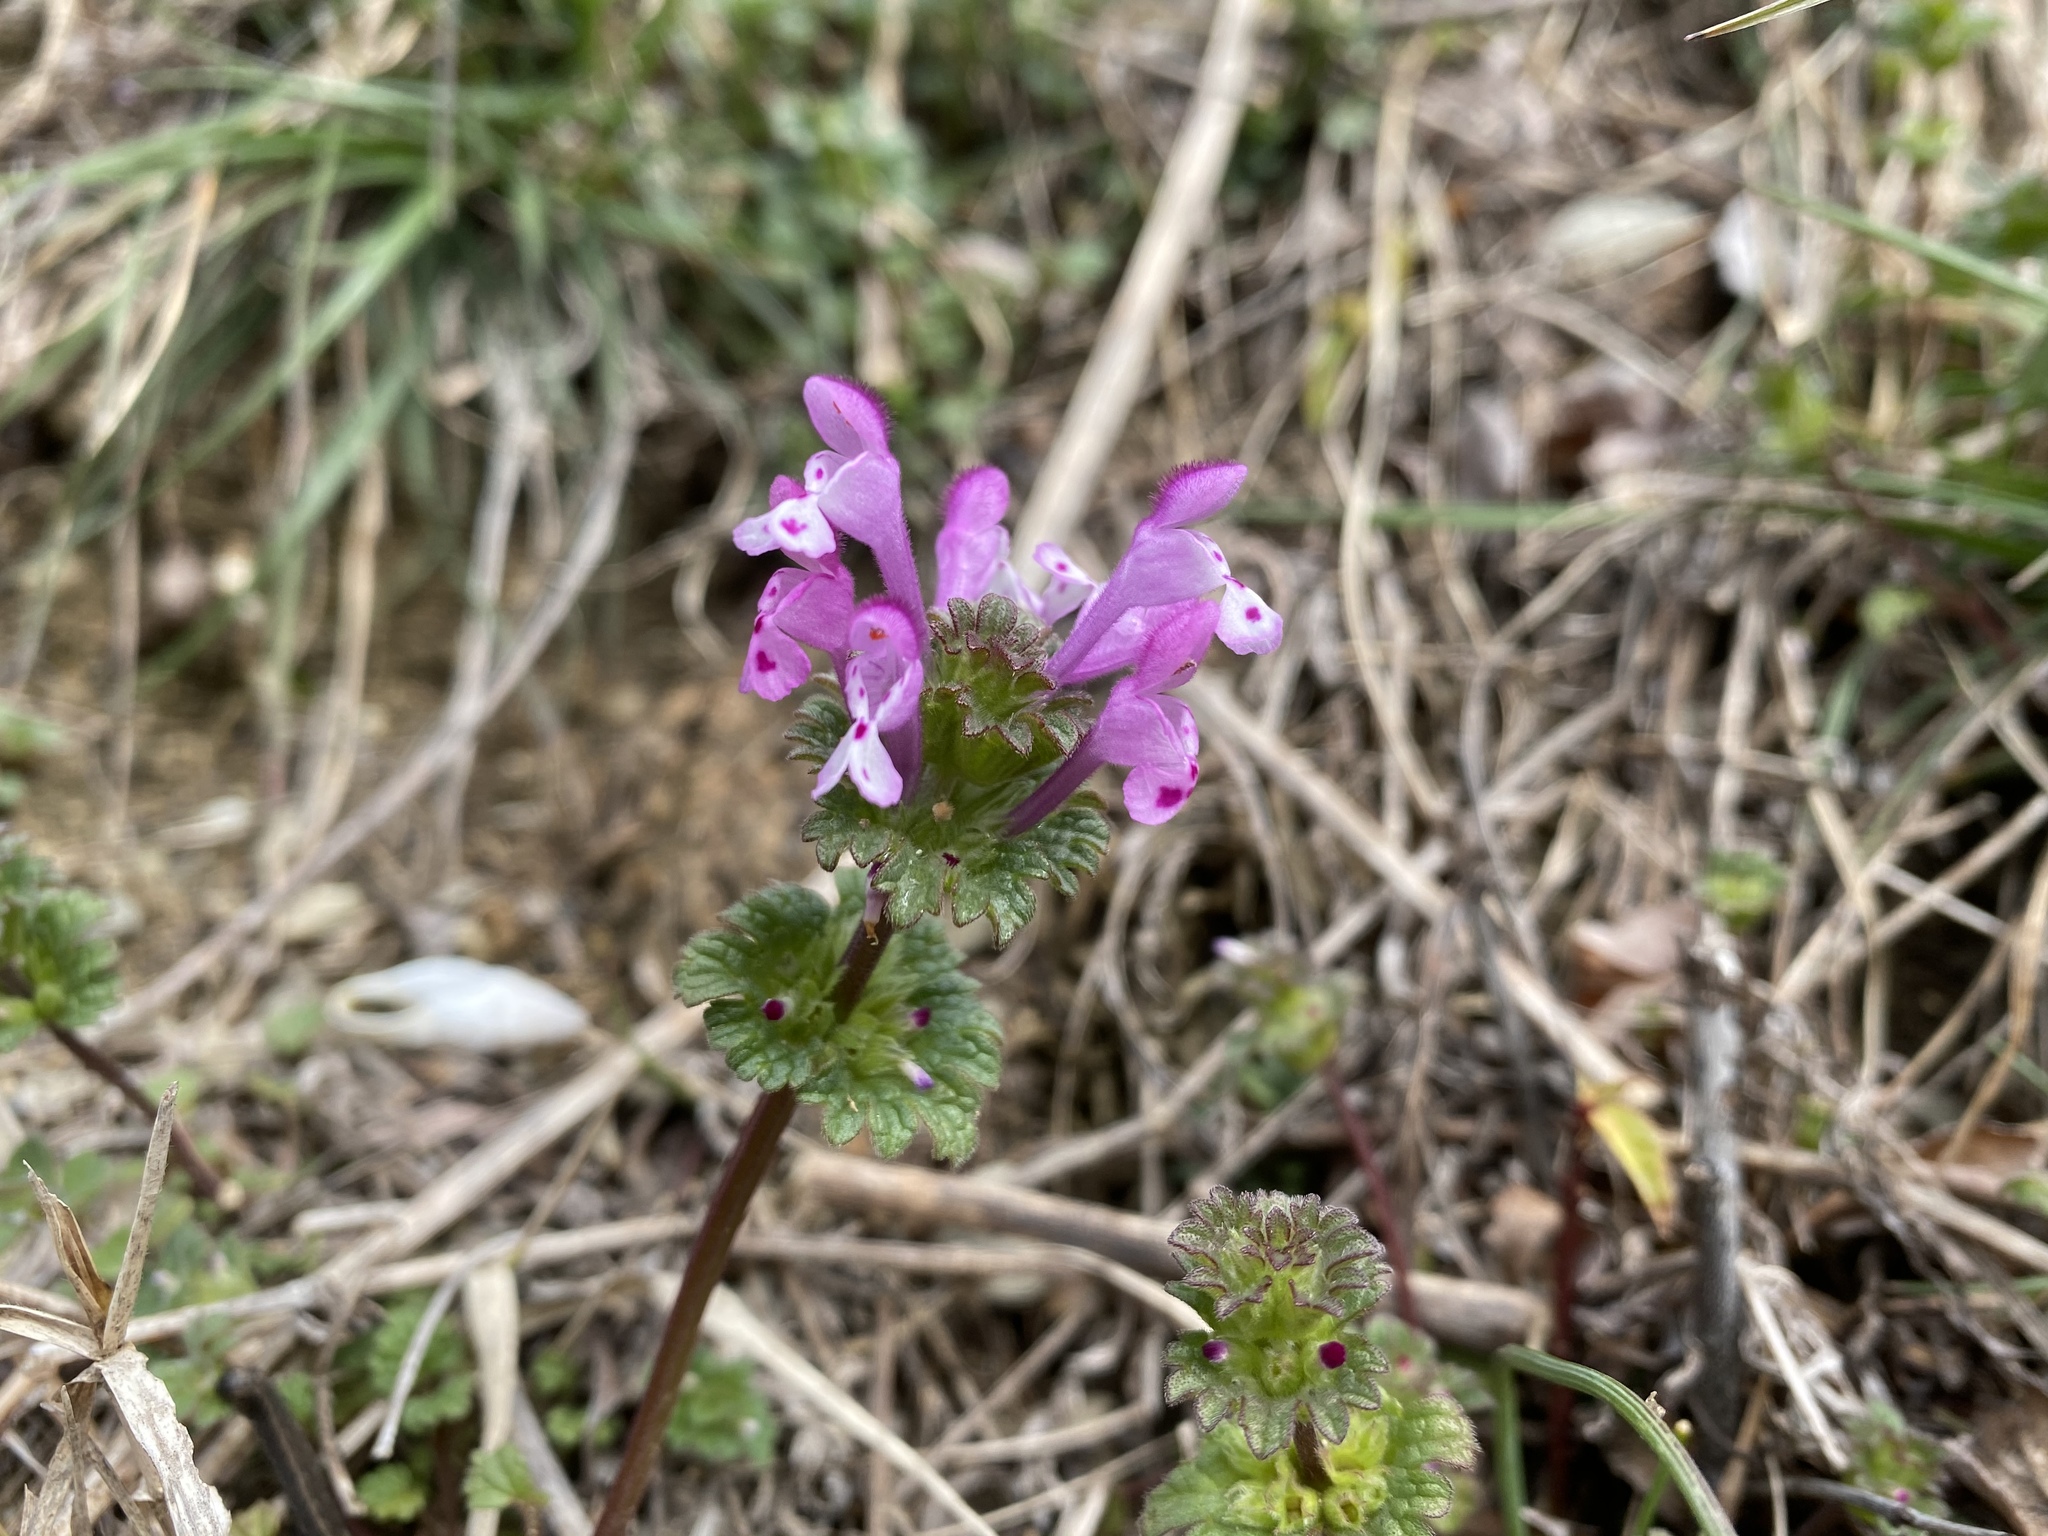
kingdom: Plantae
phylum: Tracheophyta
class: Magnoliopsida
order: Lamiales
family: Lamiaceae
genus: Lamium
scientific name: Lamium amplexicaule
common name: Henbit dead-nettle
